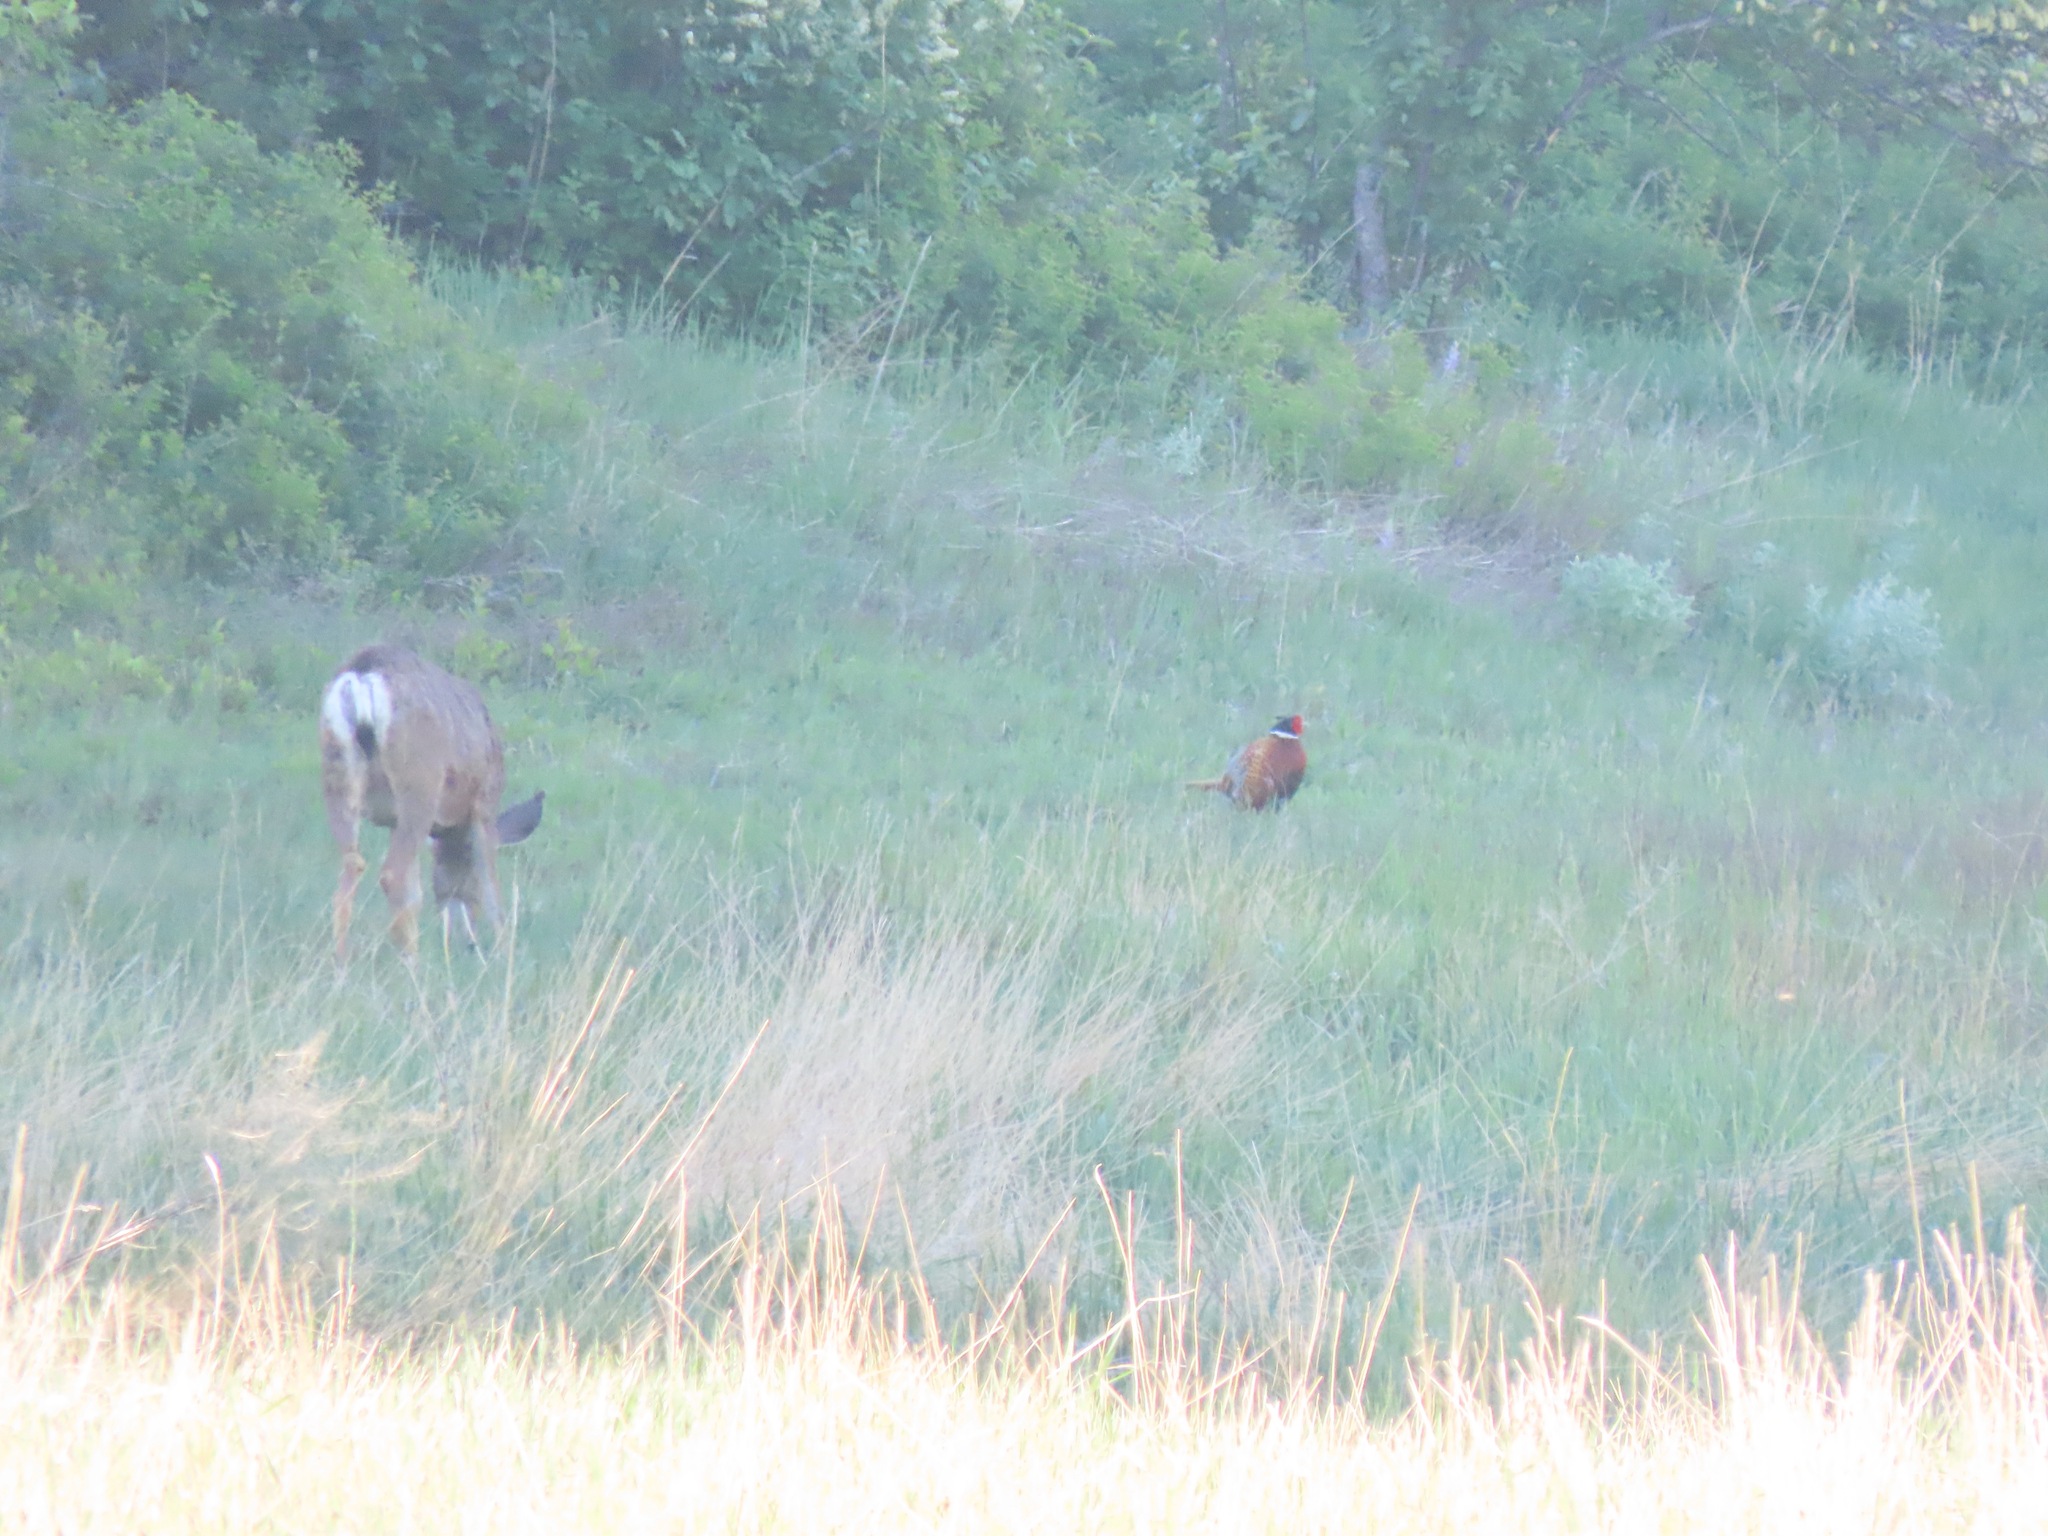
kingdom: Animalia
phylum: Chordata
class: Mammalia
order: Artiodactyla
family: Cervidae
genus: Odocoileus
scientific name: Odocoileus hemionus
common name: Mule deer
